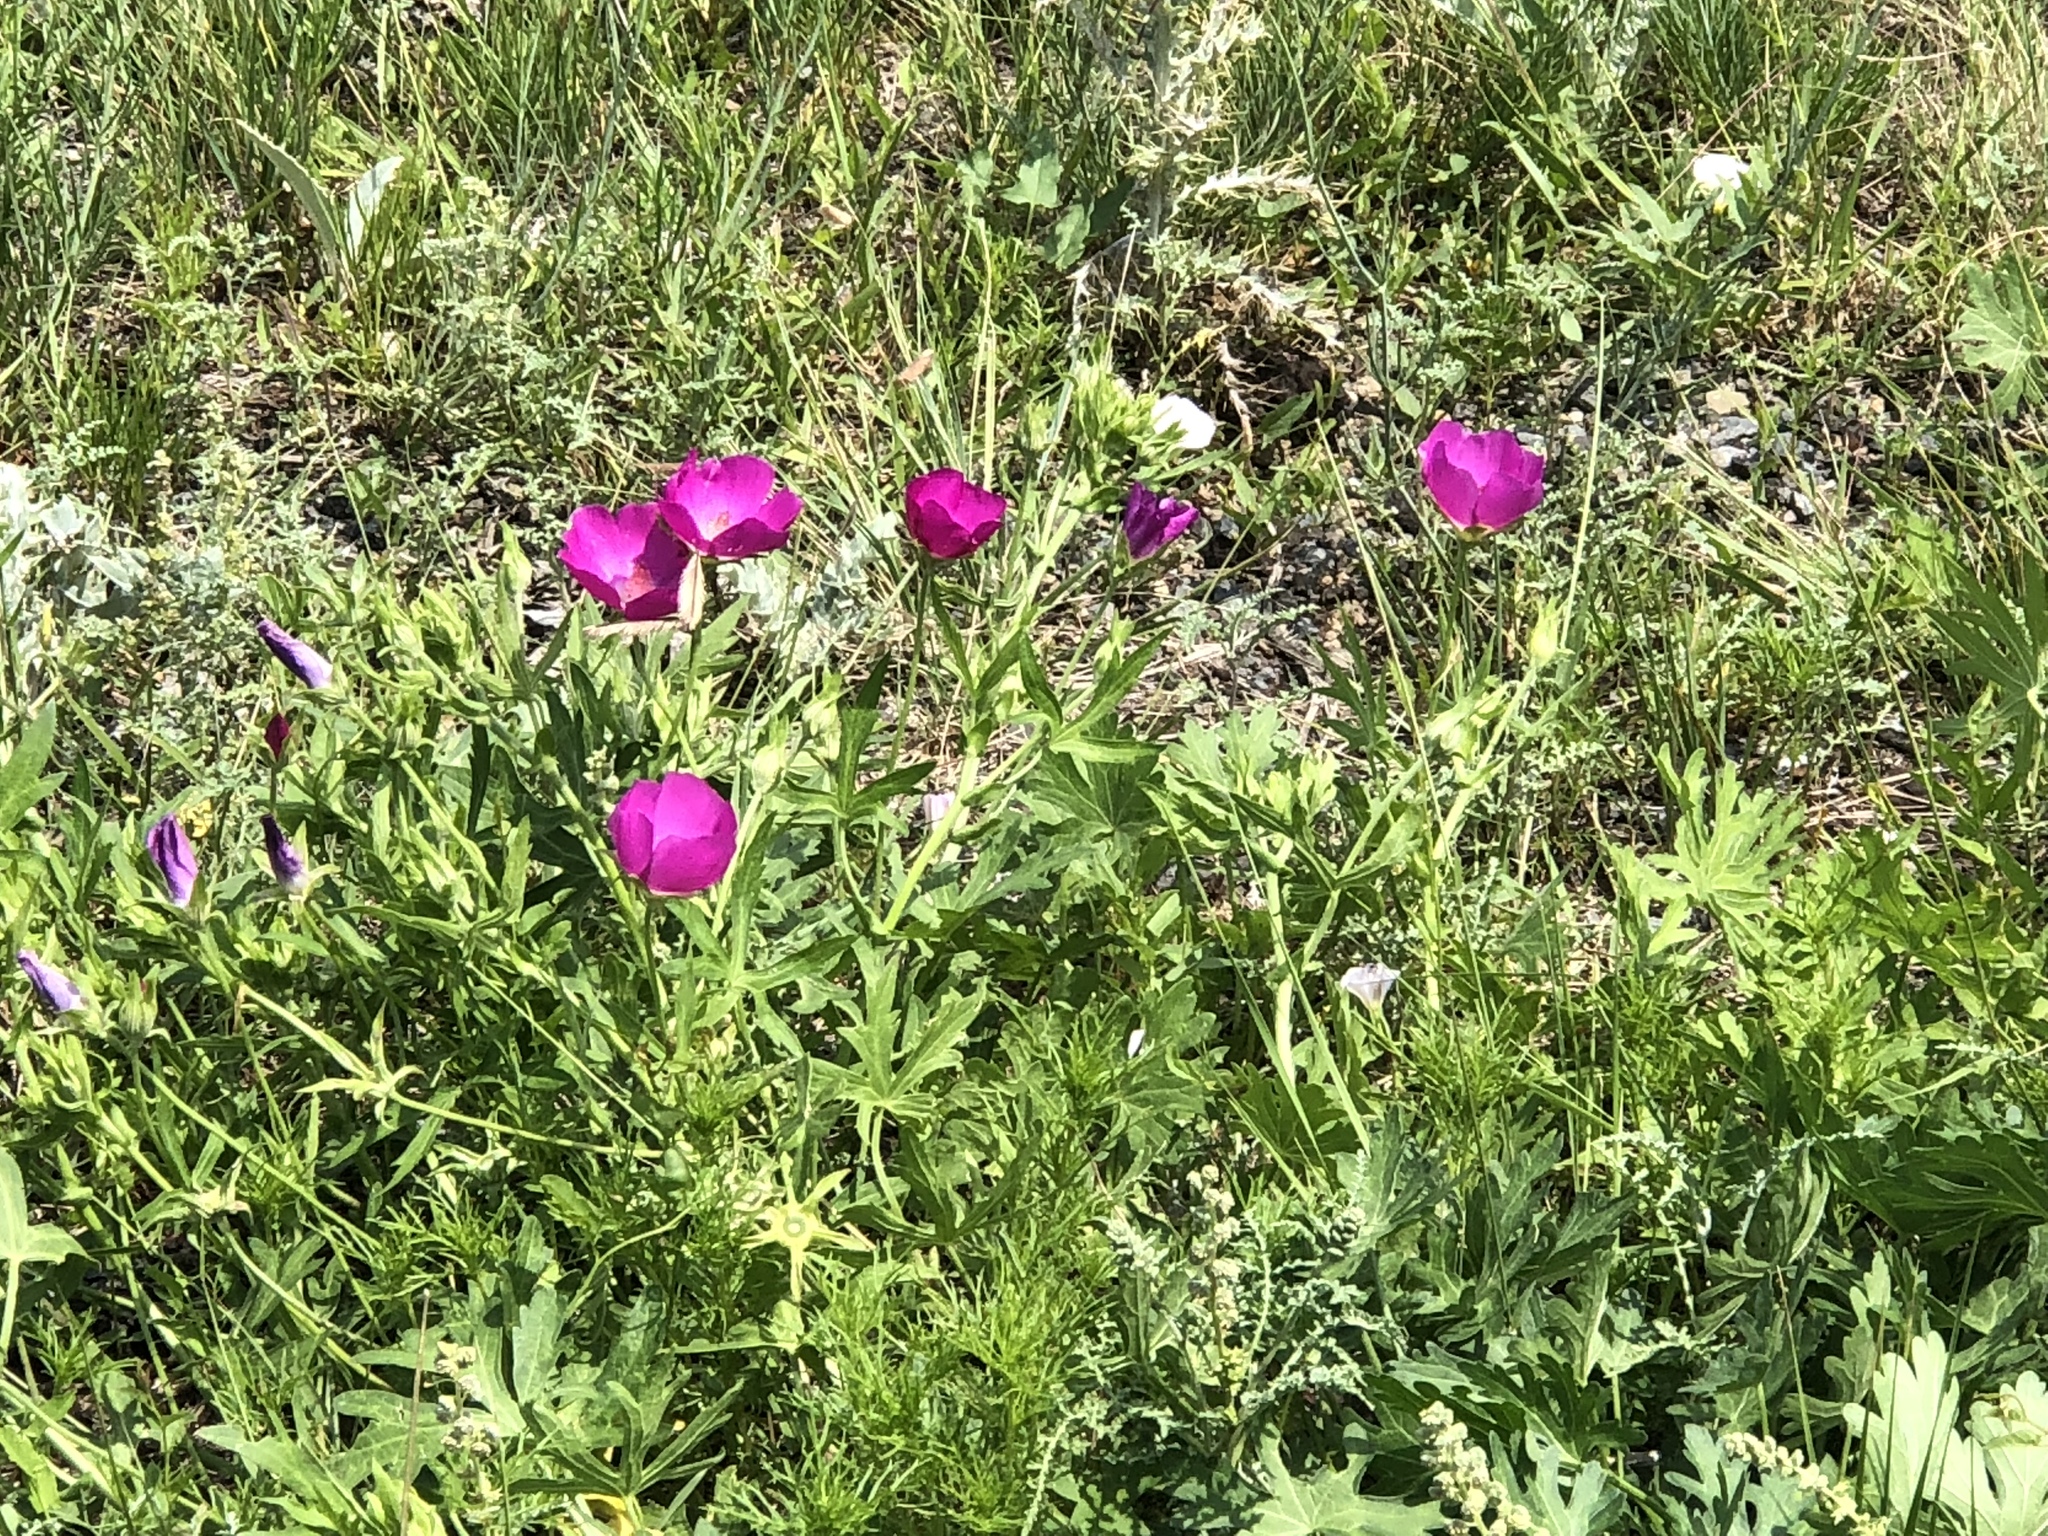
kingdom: Plantae
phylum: Tracheophyta
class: Magnoliopsida
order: Malvales
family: Malvaceae
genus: Callirhoe
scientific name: Callirhoe involucrata
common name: Purple poppy-mallow
